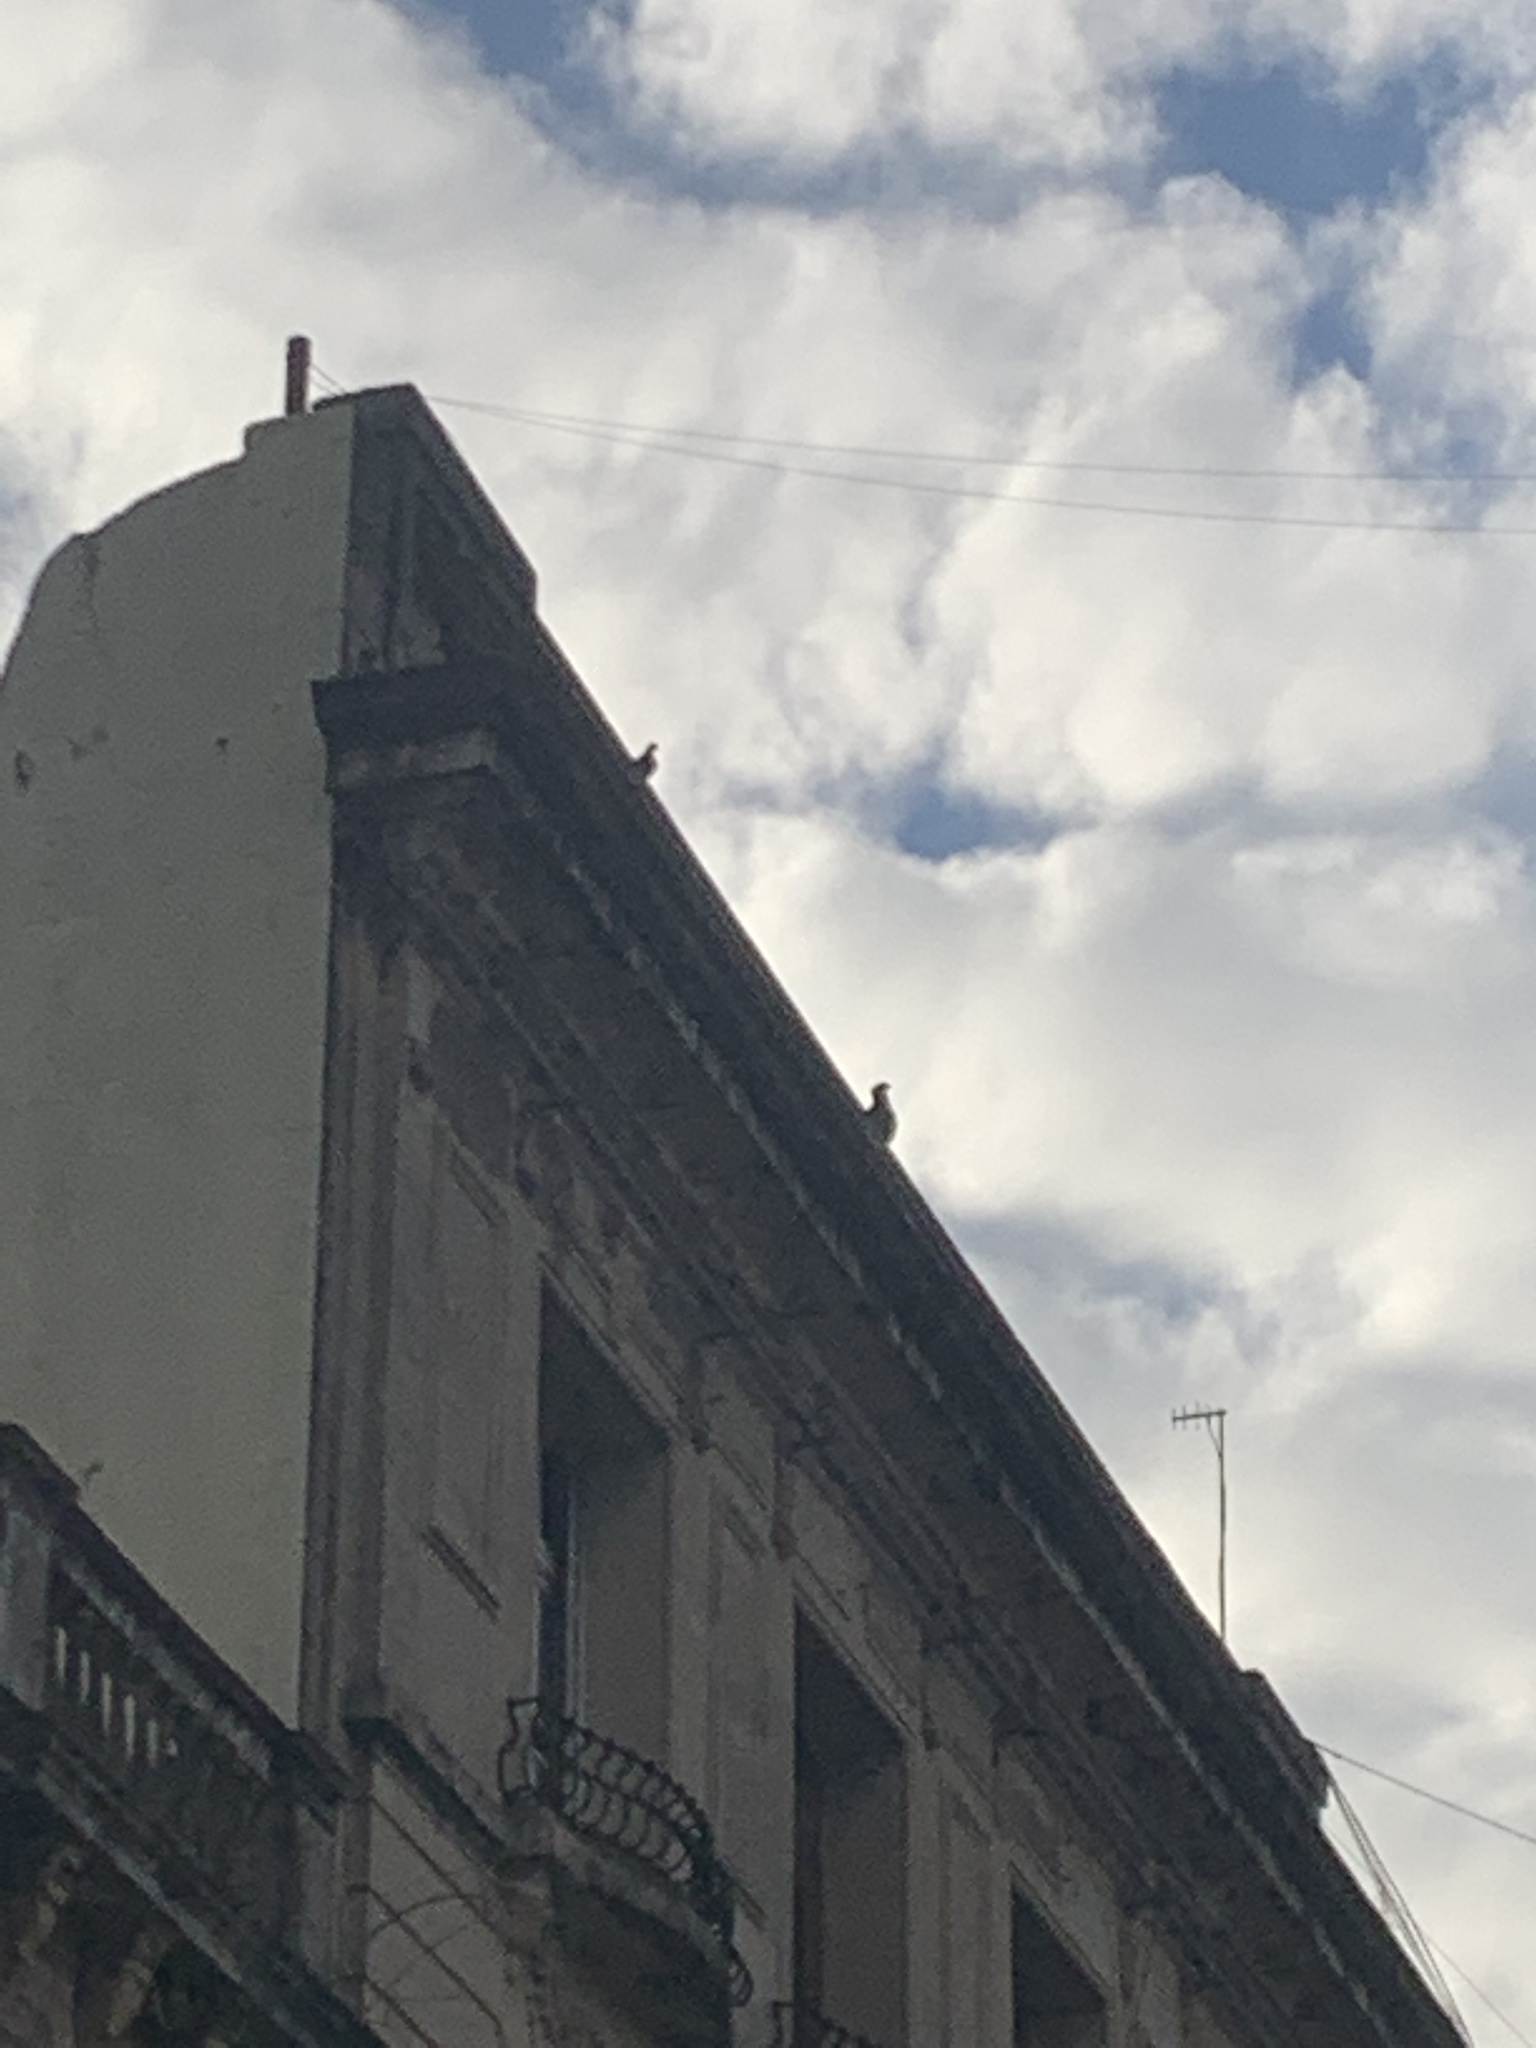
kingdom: Animalia
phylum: Chordata
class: Aves
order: Falconiformes
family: Falconidae
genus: Caracara
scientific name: Caracara plancus
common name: Southern caracara
